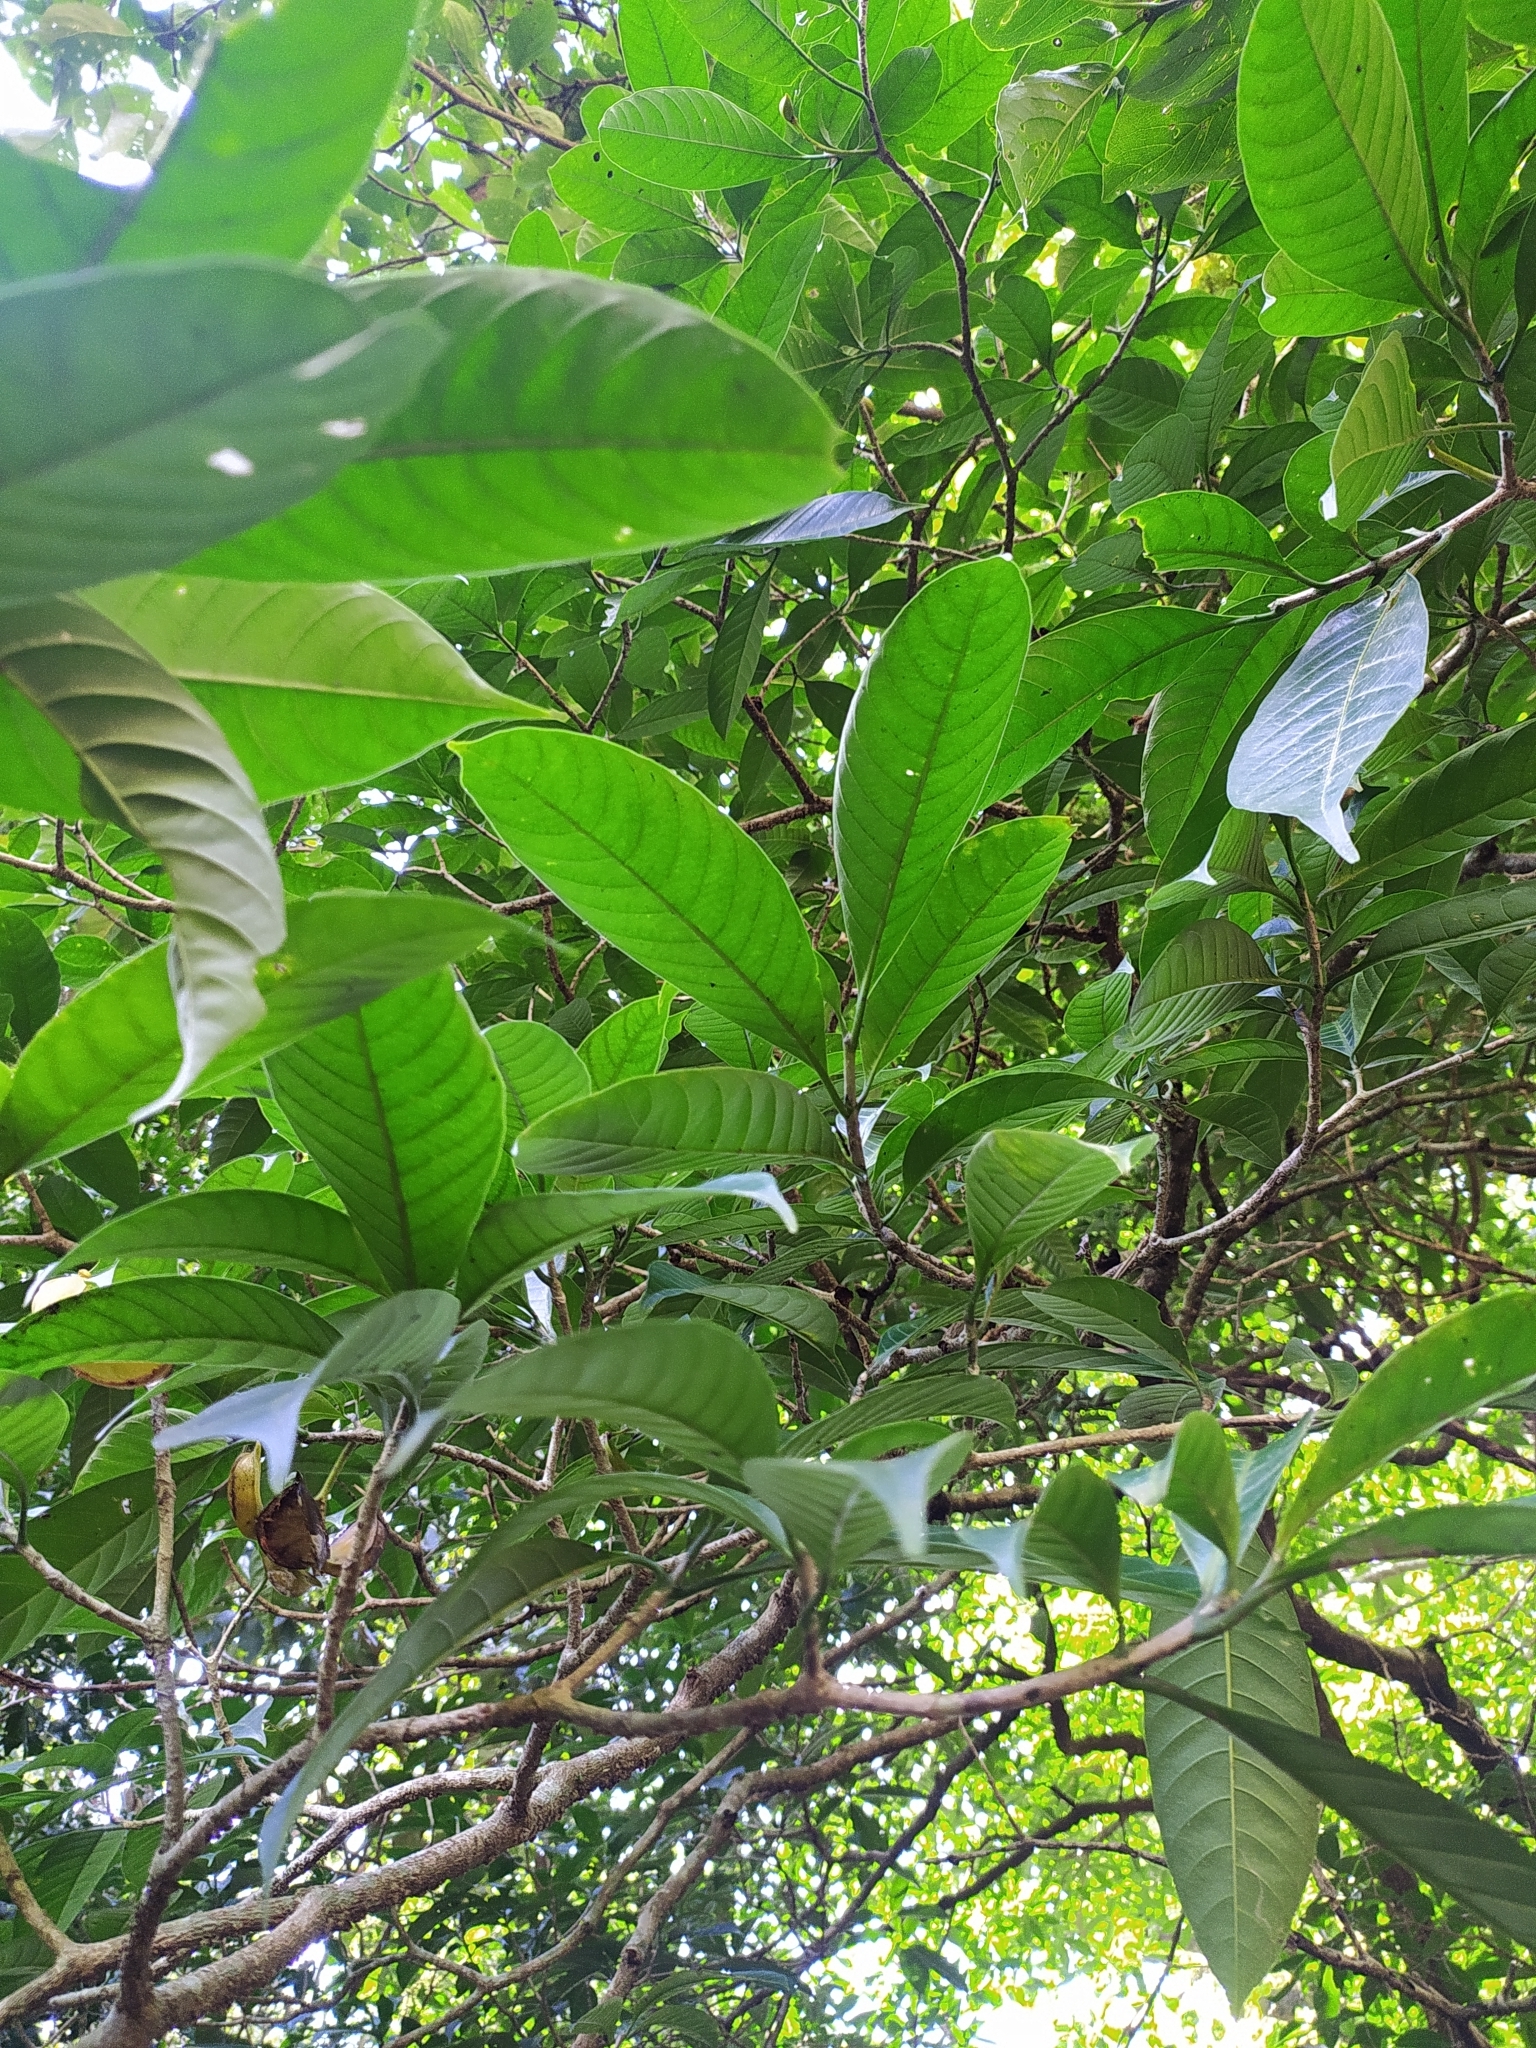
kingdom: Plantae
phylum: Tracheophyta
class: Magnoliopsida
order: Gentianales
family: Apocynaceae
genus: Tabernaemontana
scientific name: Tabernaemontana alternifolia
